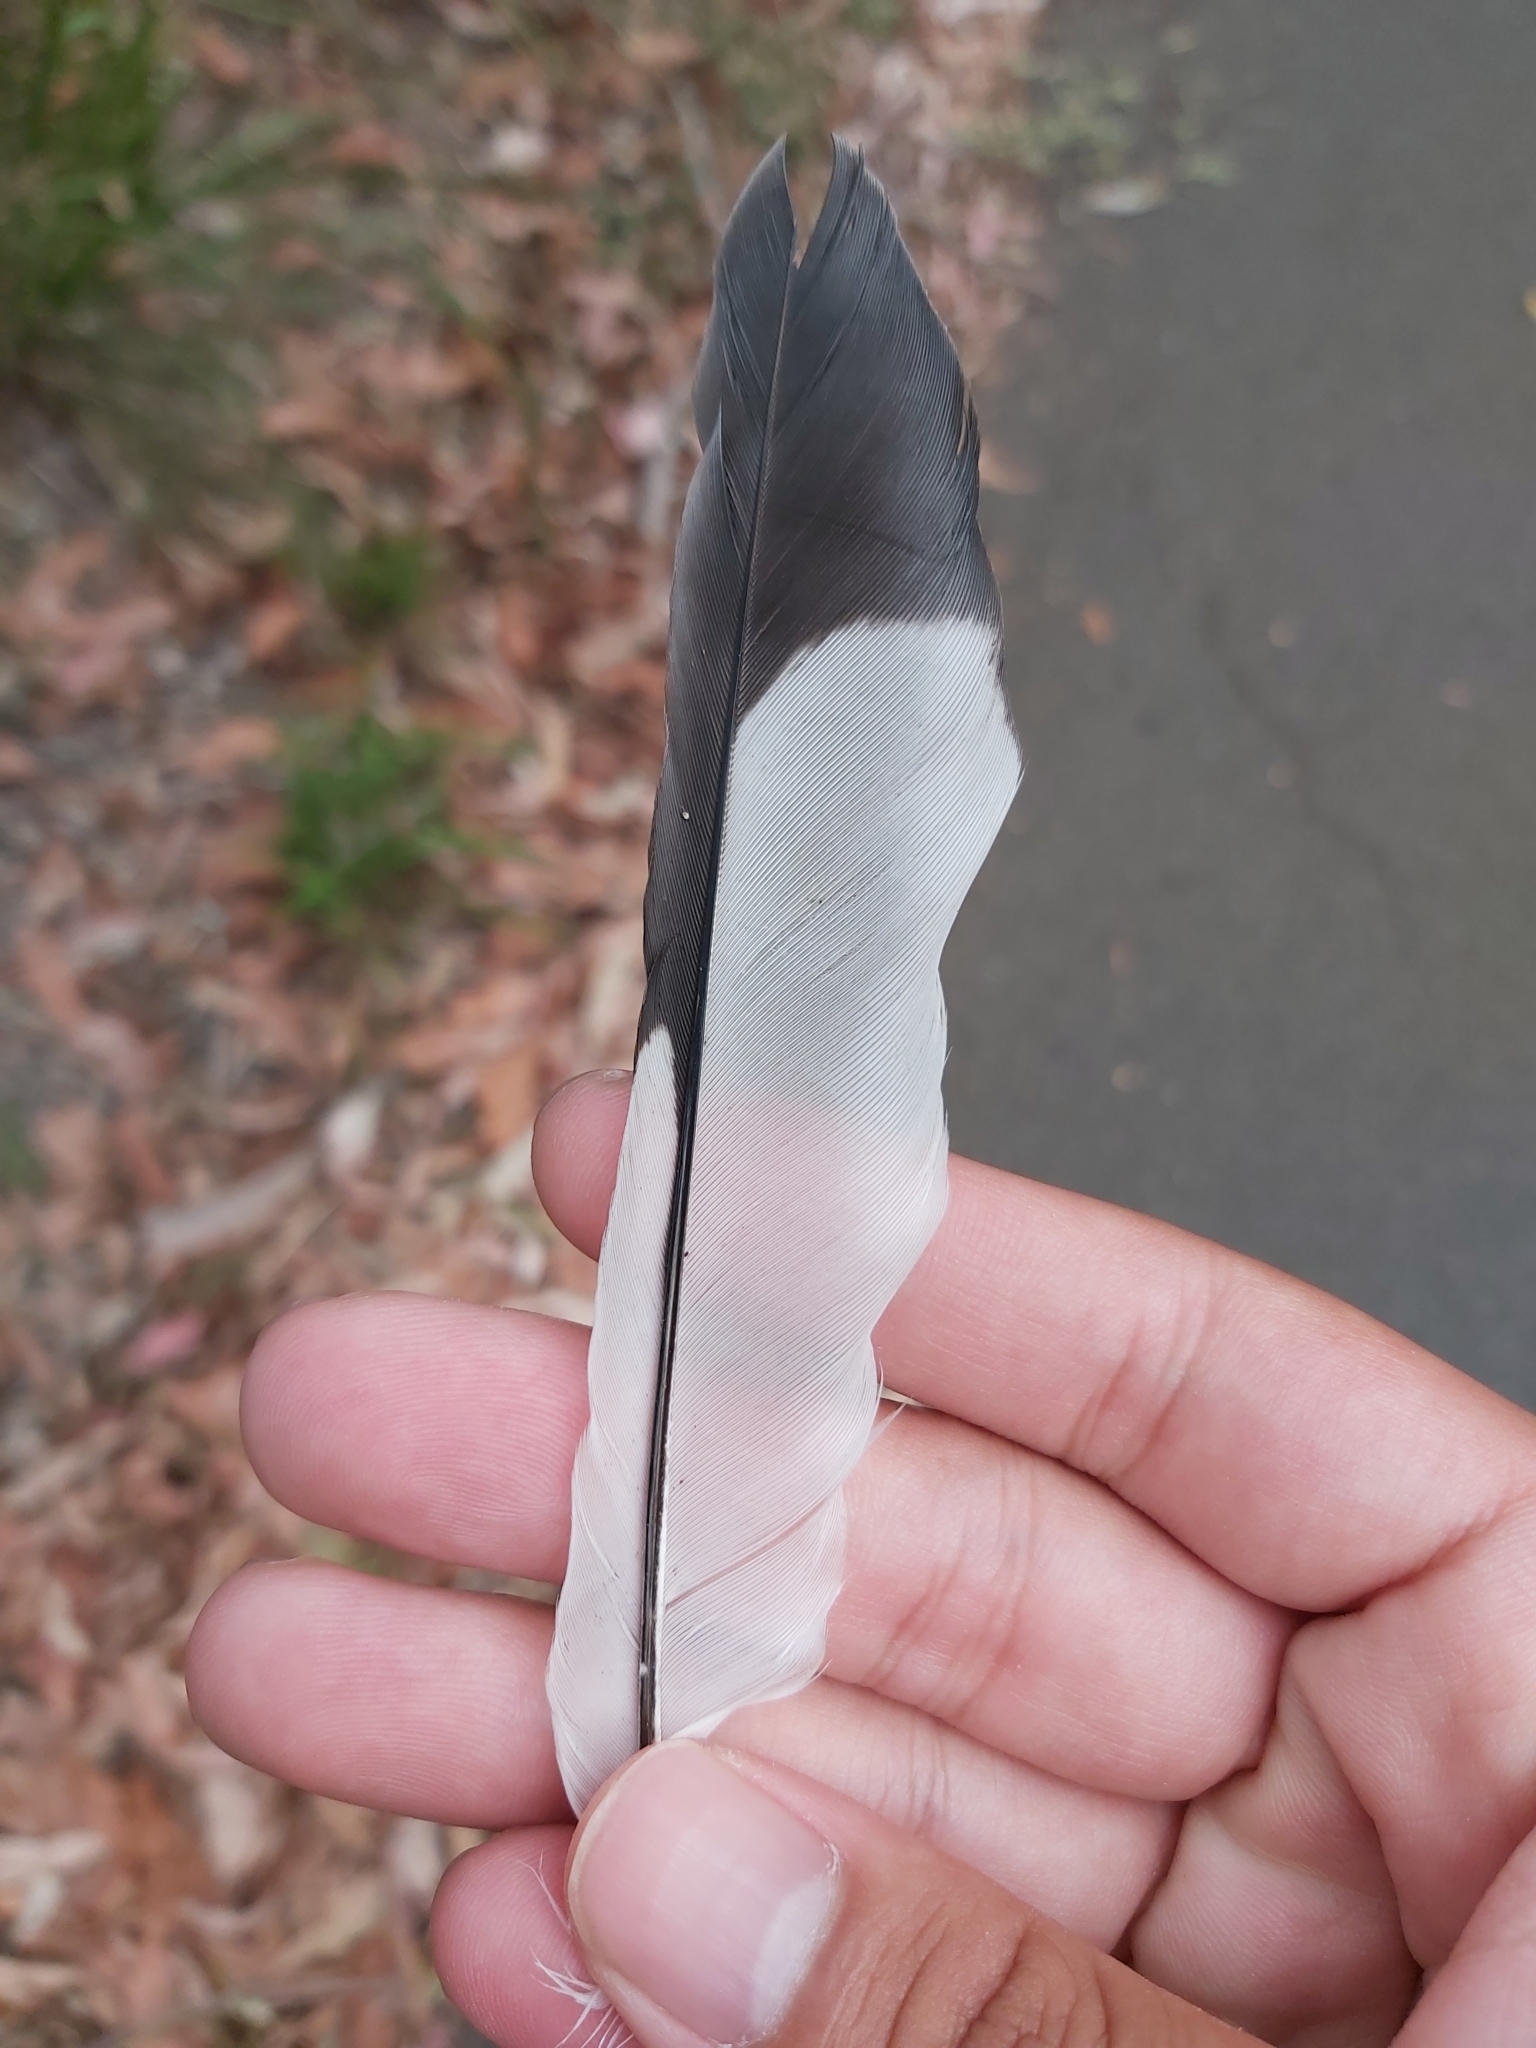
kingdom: Animalia
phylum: Chordata
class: Aves
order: Passeriformes
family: Cracticidae
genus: Gymnorhina
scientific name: Gymnorhina tibicen
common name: Australian magpie
